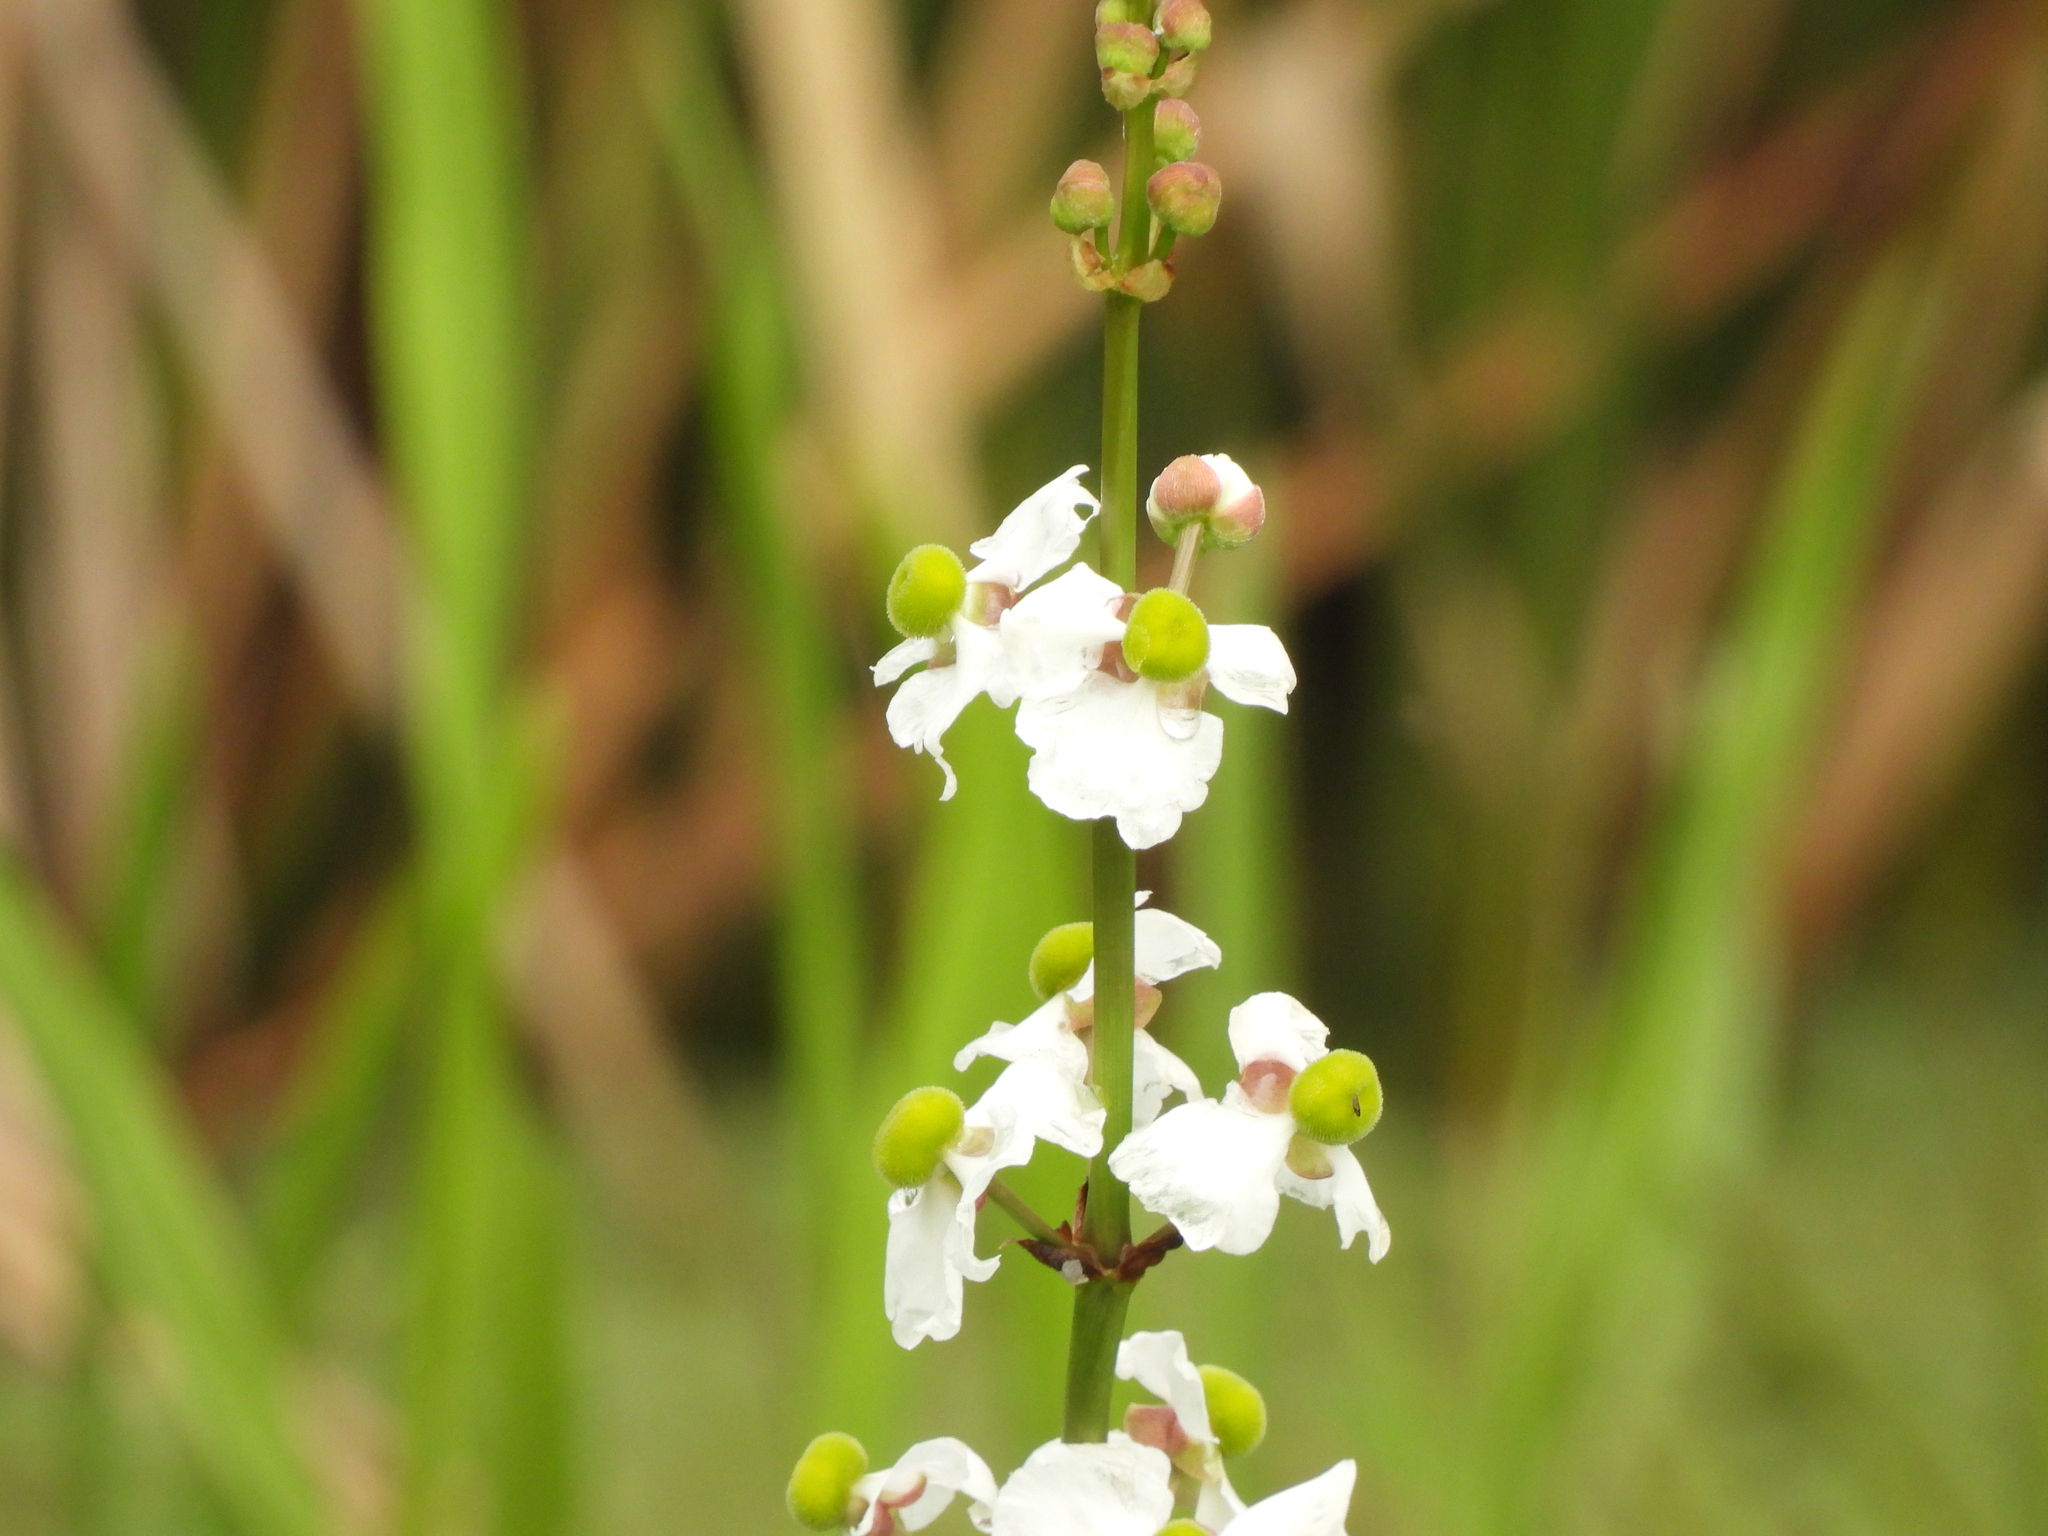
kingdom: Plantae
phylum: Tracheophyta
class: Liliopsida
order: Alismatales
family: Alismataceae
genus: Sagittaria
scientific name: Sagittaria lancifolia
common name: Lance-leaf arrowhead
